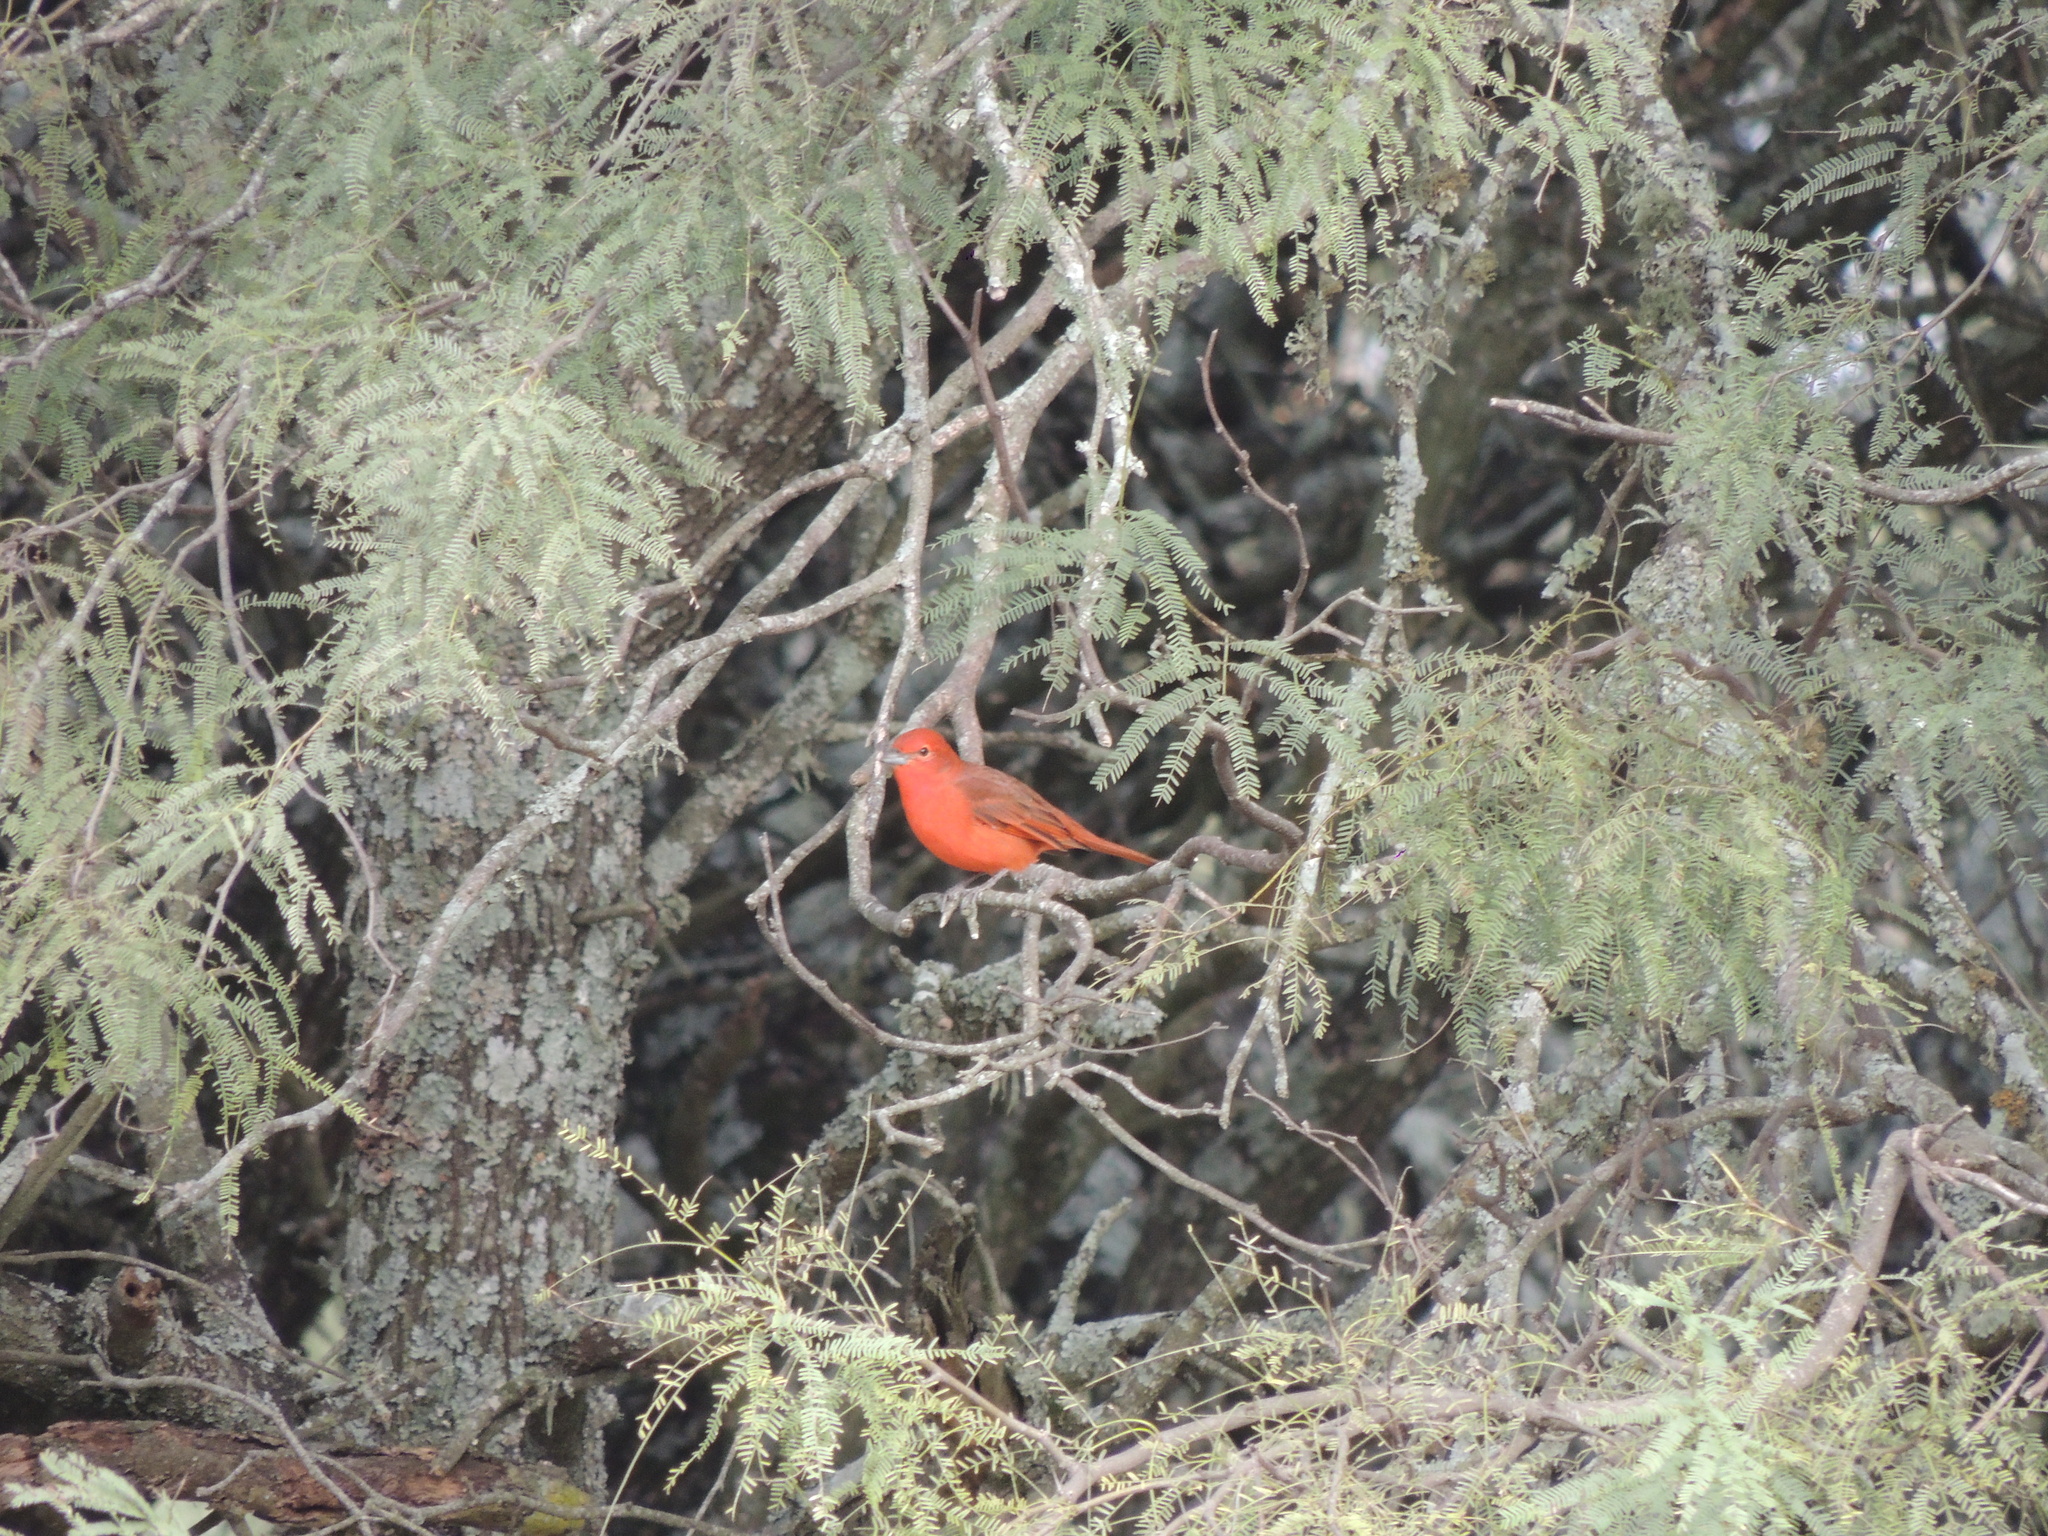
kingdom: Animalia
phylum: Chordata
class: Aves
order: Passeriformes
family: Cardinalidae
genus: Piranga
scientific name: Piranga flava
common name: Red tanager
